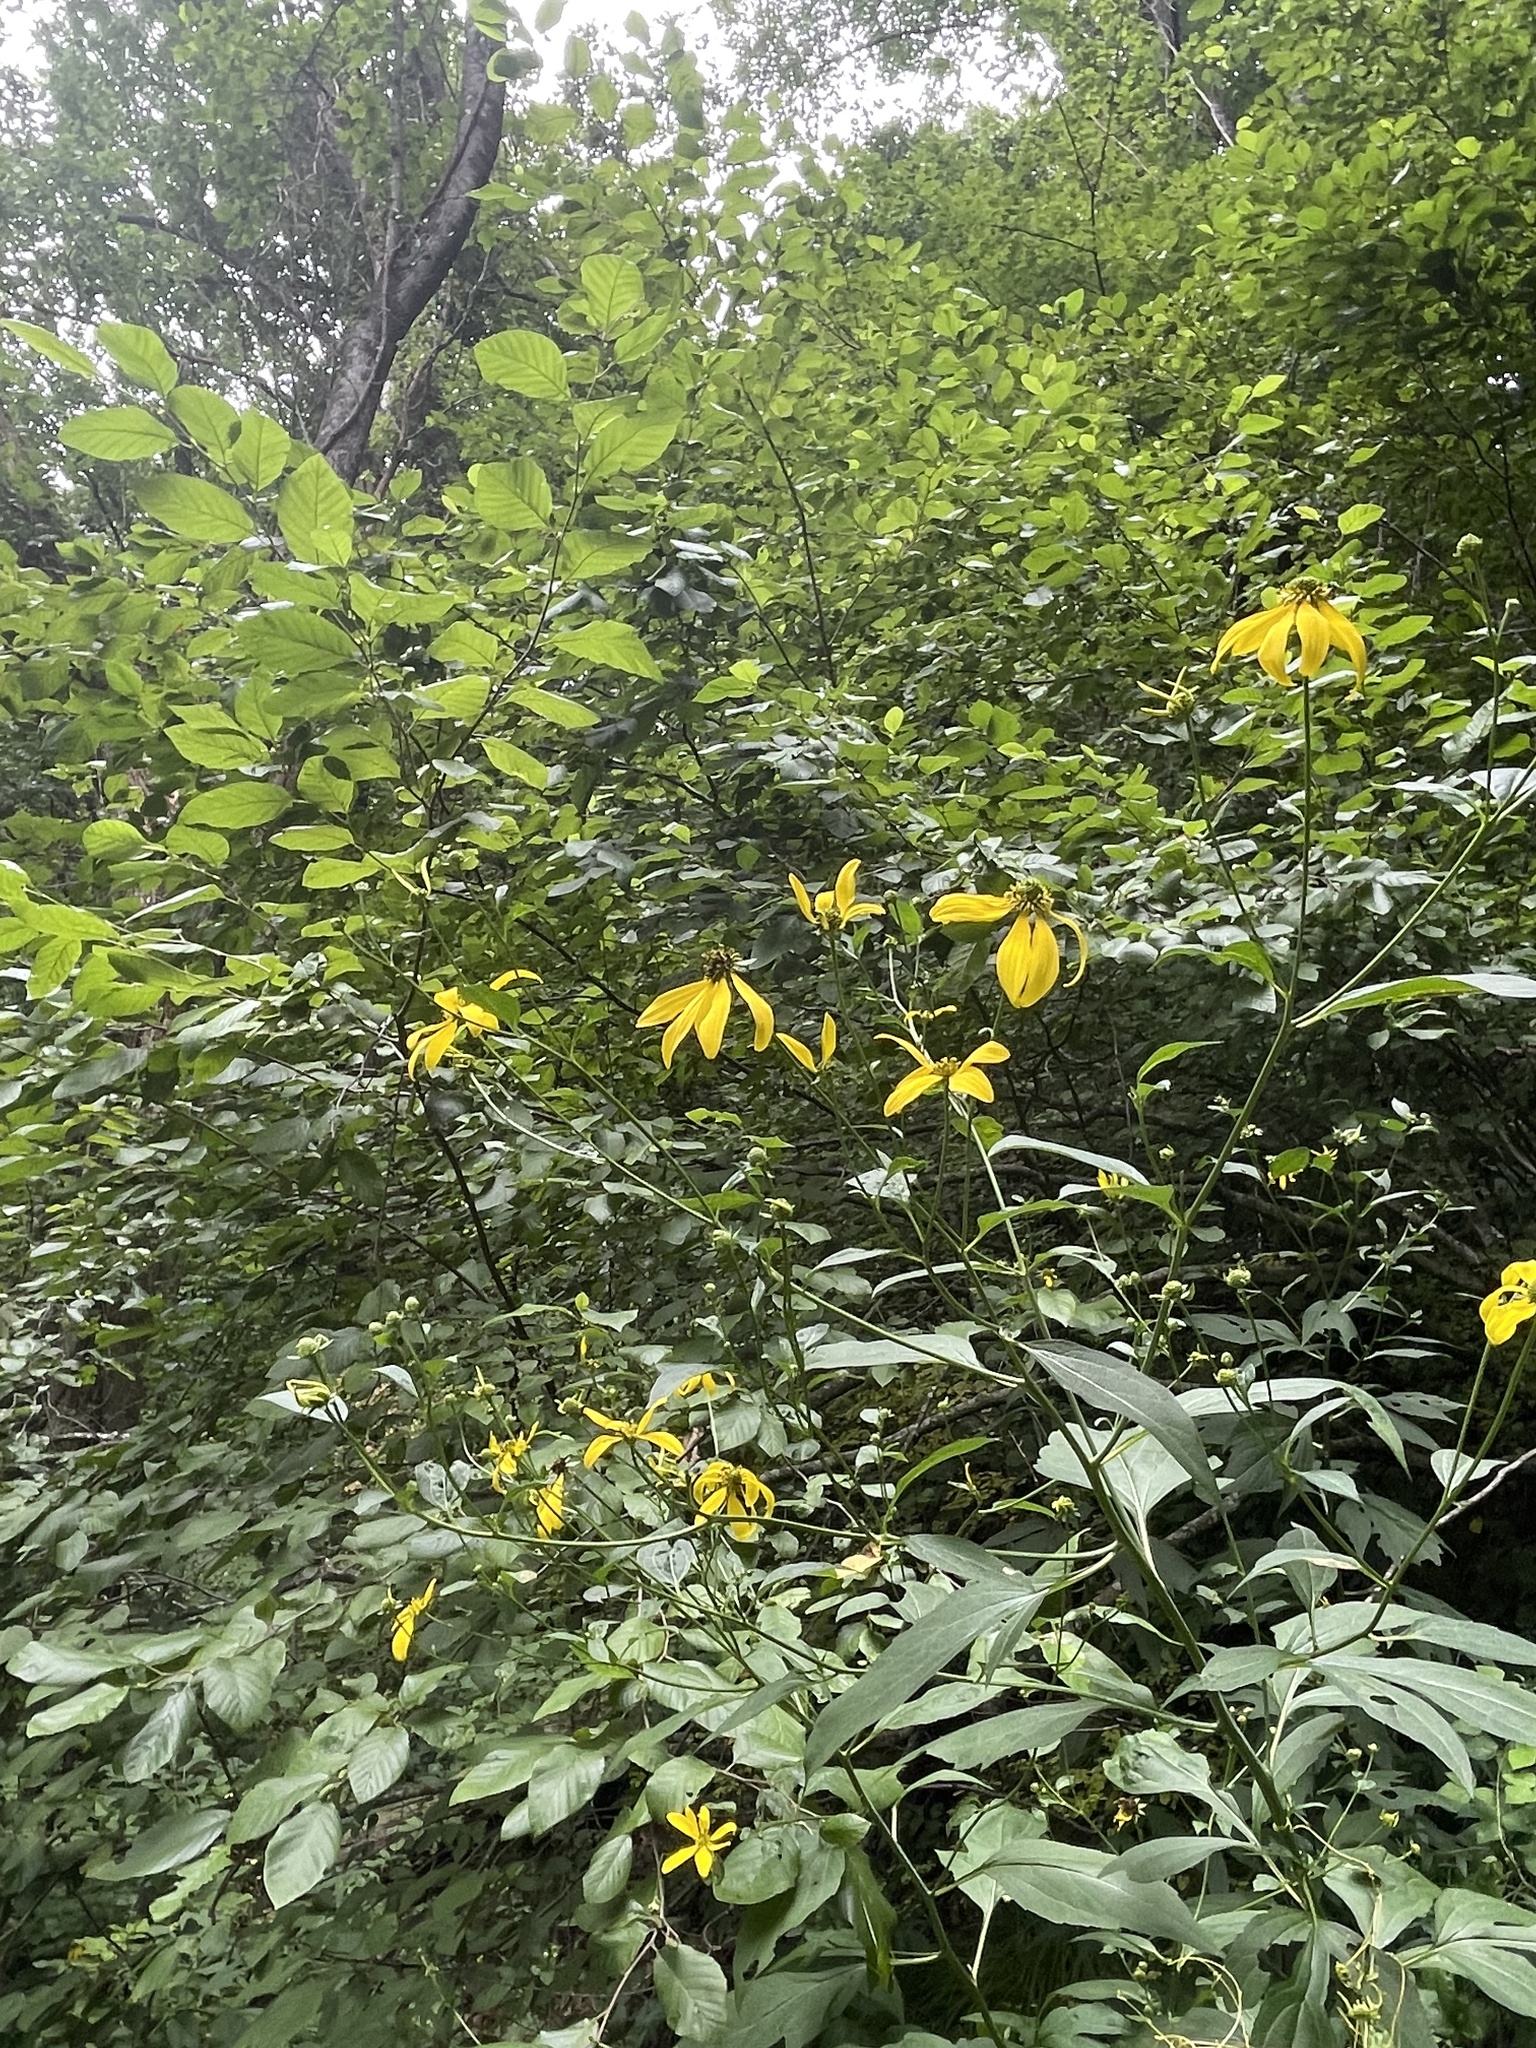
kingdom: Plantae
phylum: Tracheophyta
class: Magnoliopsida
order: Asterales
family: Asteraceae
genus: Rudbeckia
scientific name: Rudbeckia laciniata
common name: Coneflower
